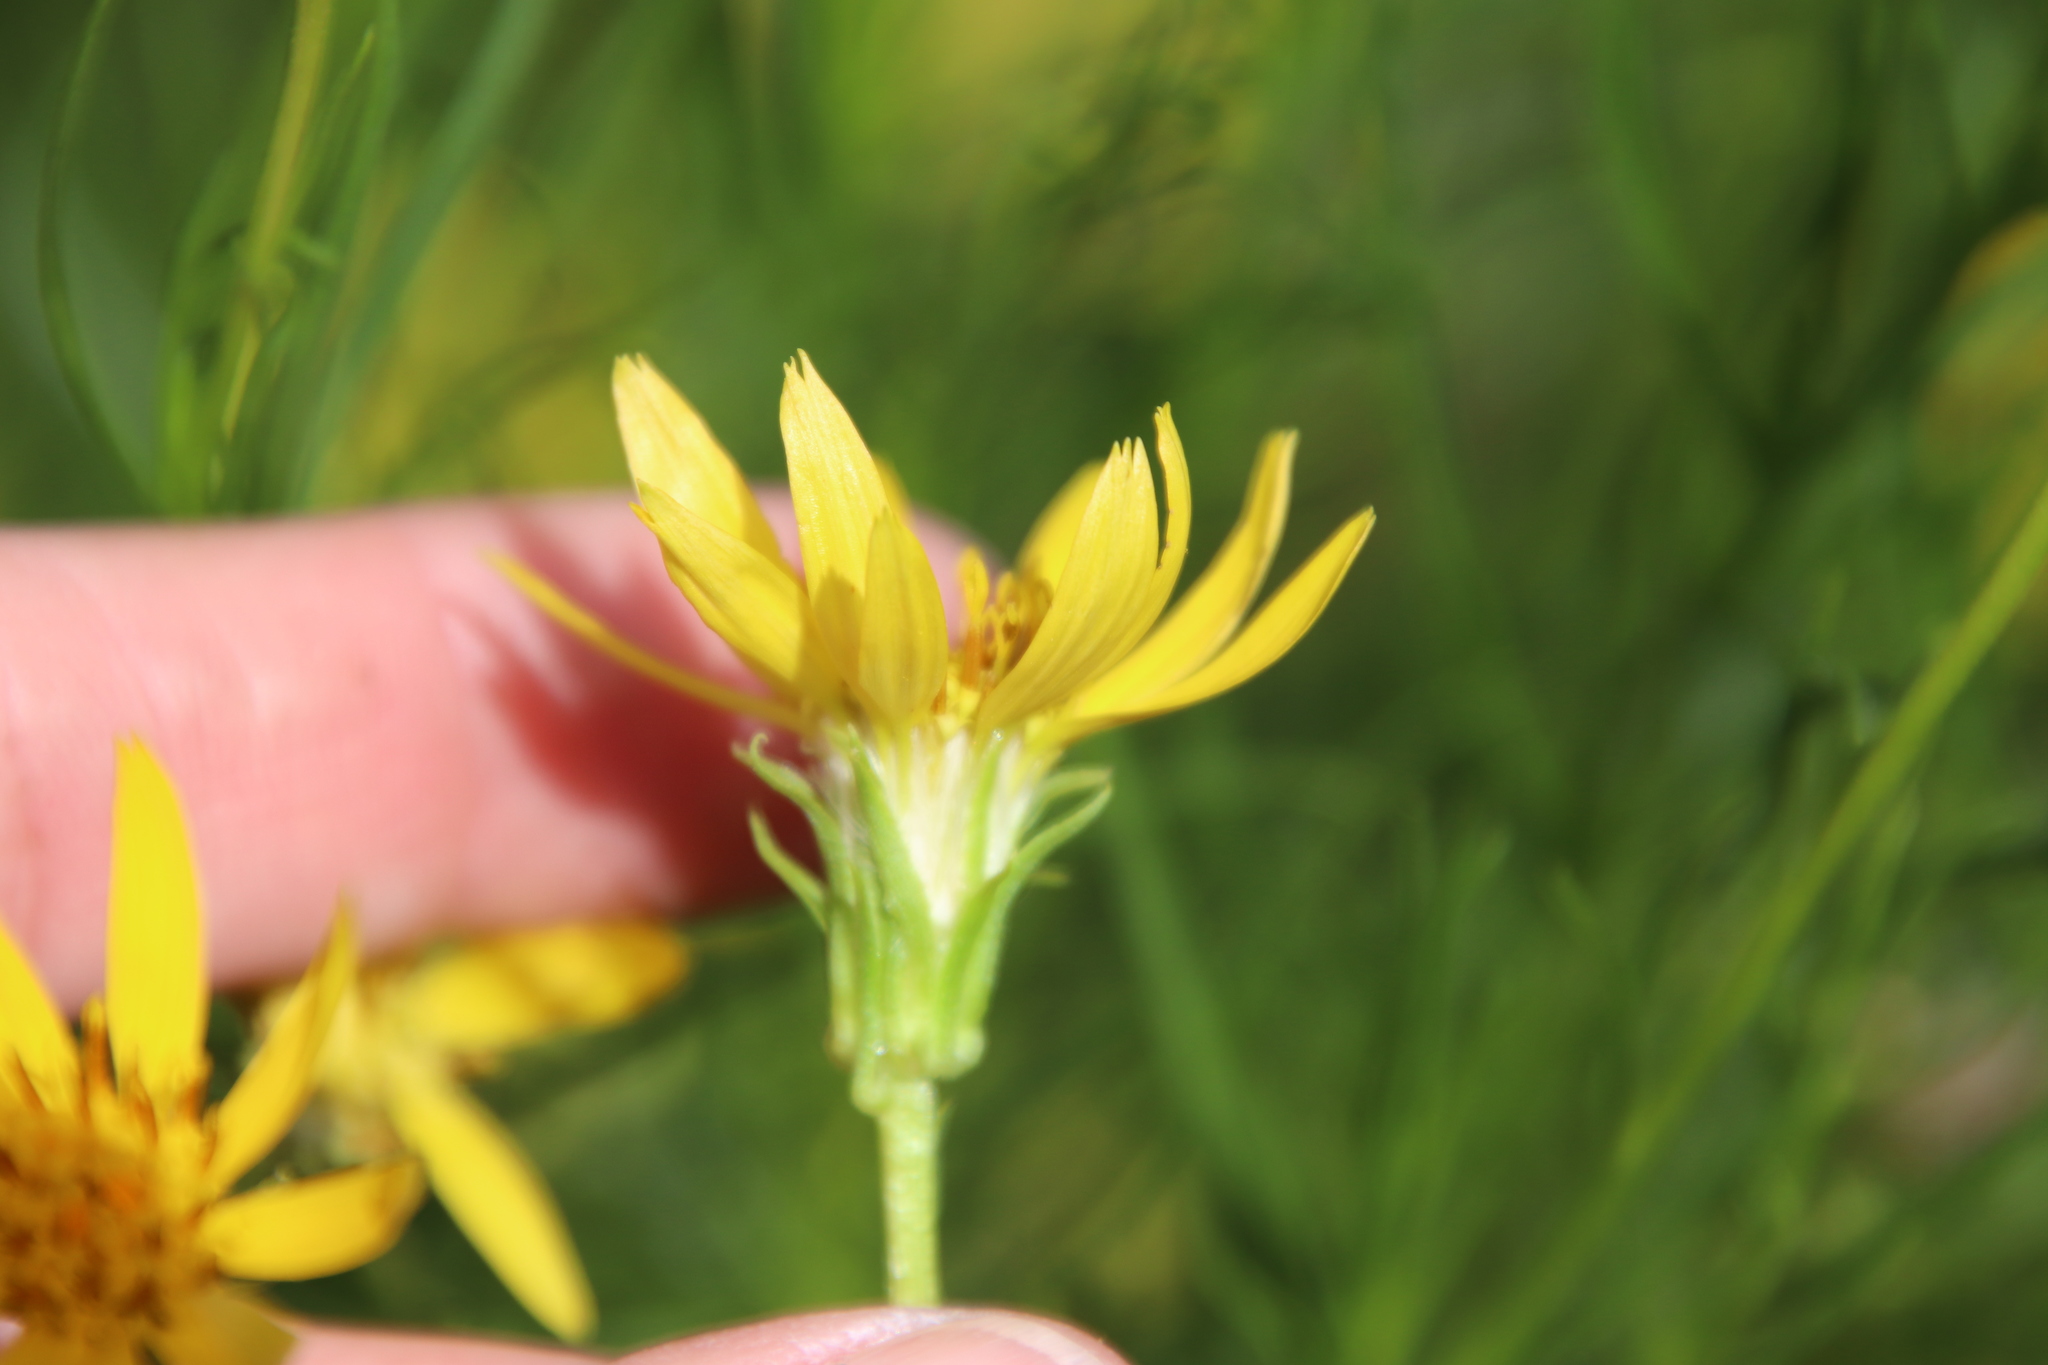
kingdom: Plantae
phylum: Tracheophyta
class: Magnoliopsida
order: Asterales
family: Asteraceae
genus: Ericameria
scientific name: Ericameria linearifolia
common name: Interior goldenbush
